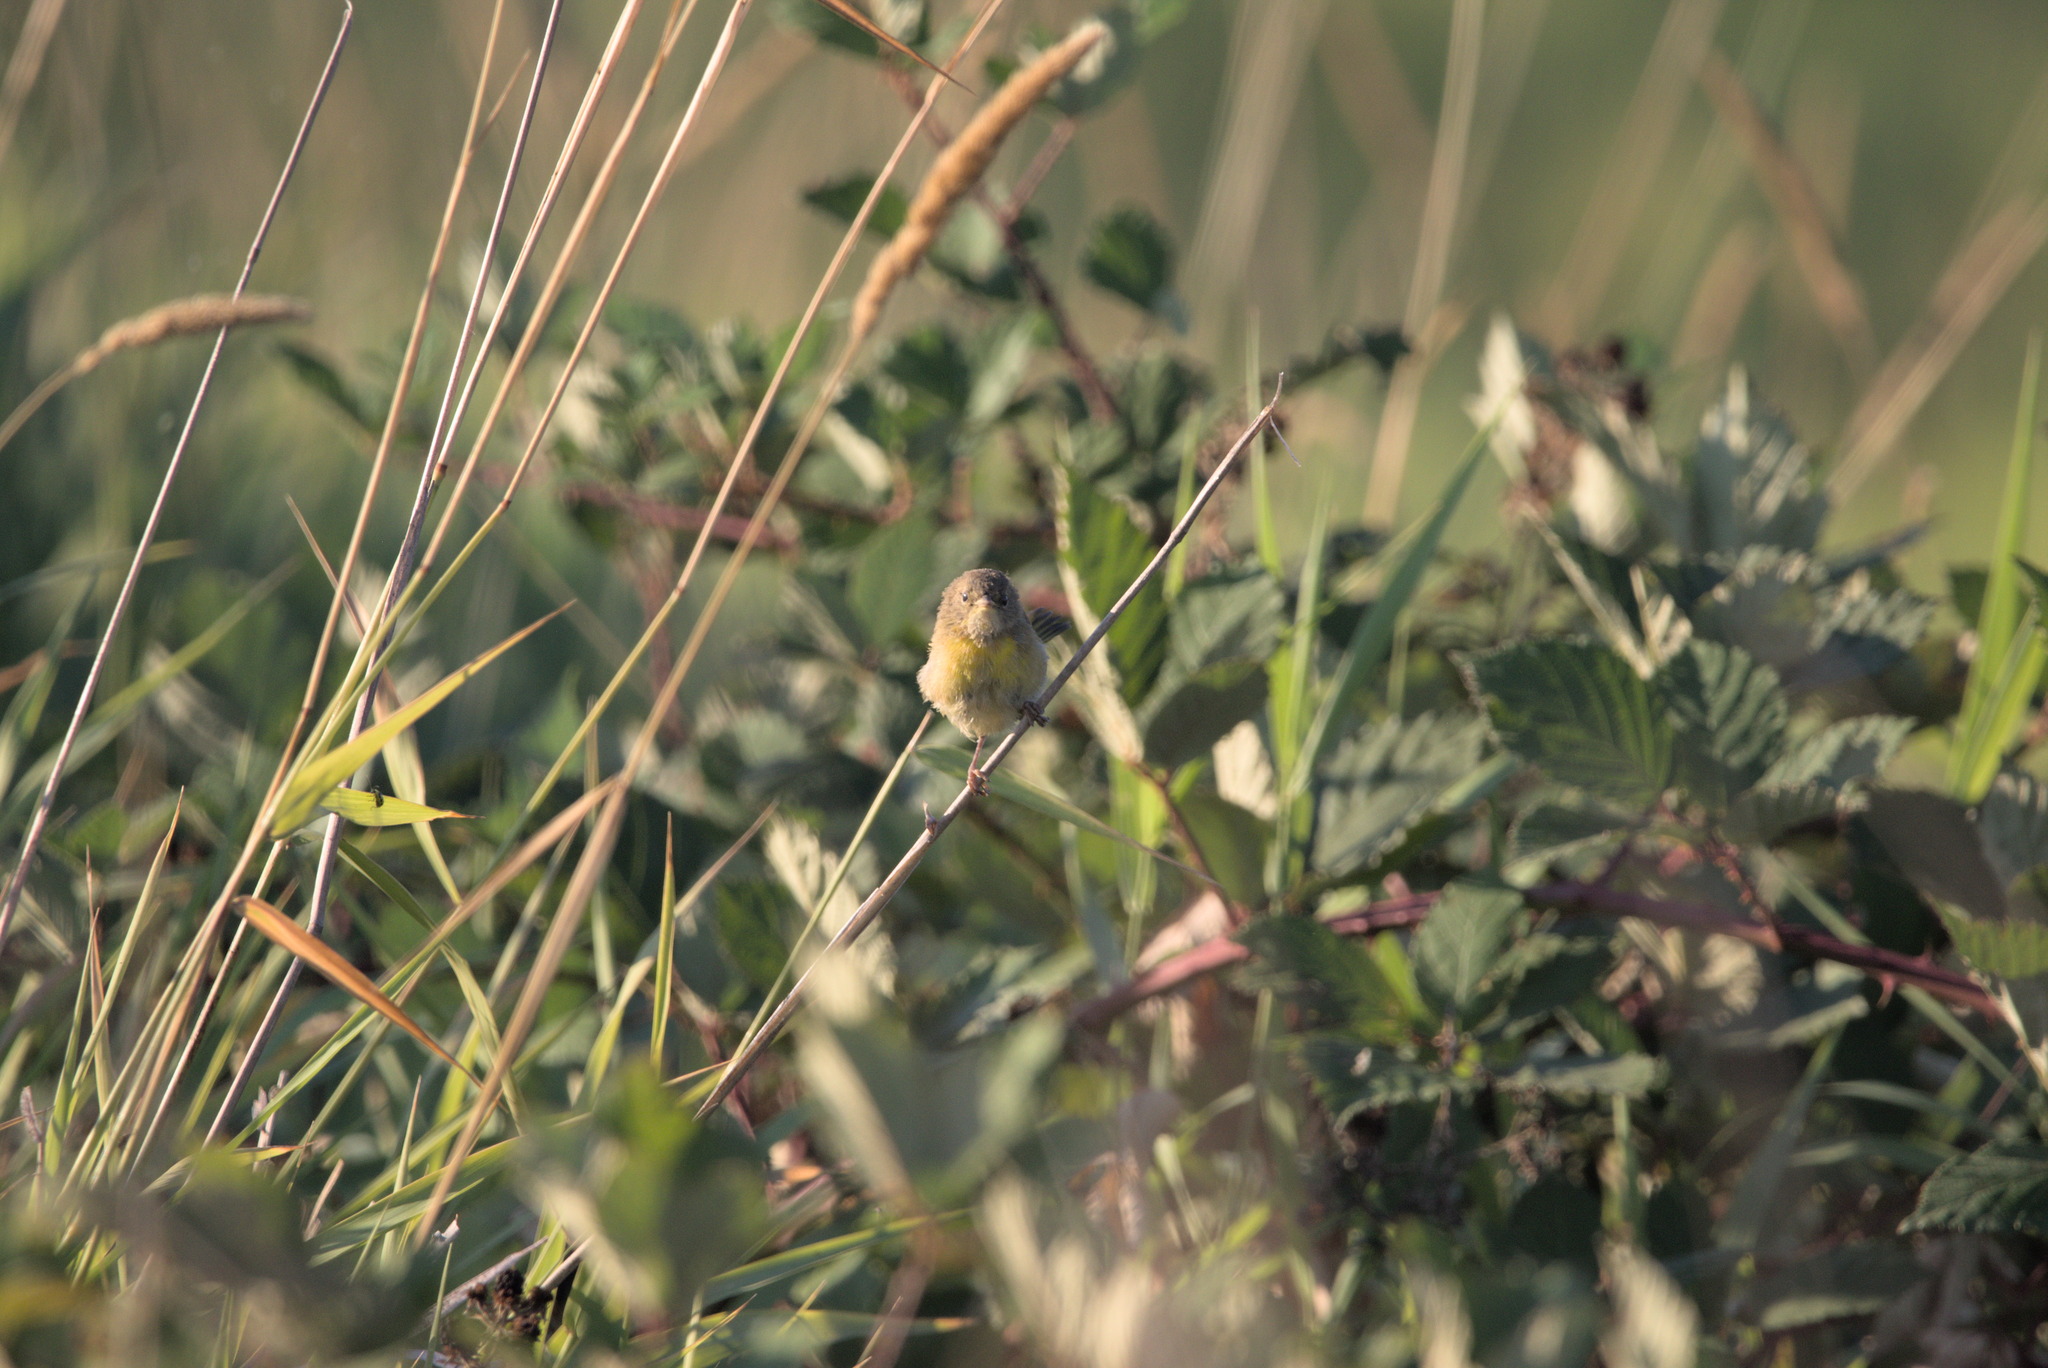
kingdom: Animalia
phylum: Chordata
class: Aves
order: Passeriformes
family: Parulidae
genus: Geothlypis
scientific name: Geothlypis trichas
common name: Common yellowthroat
